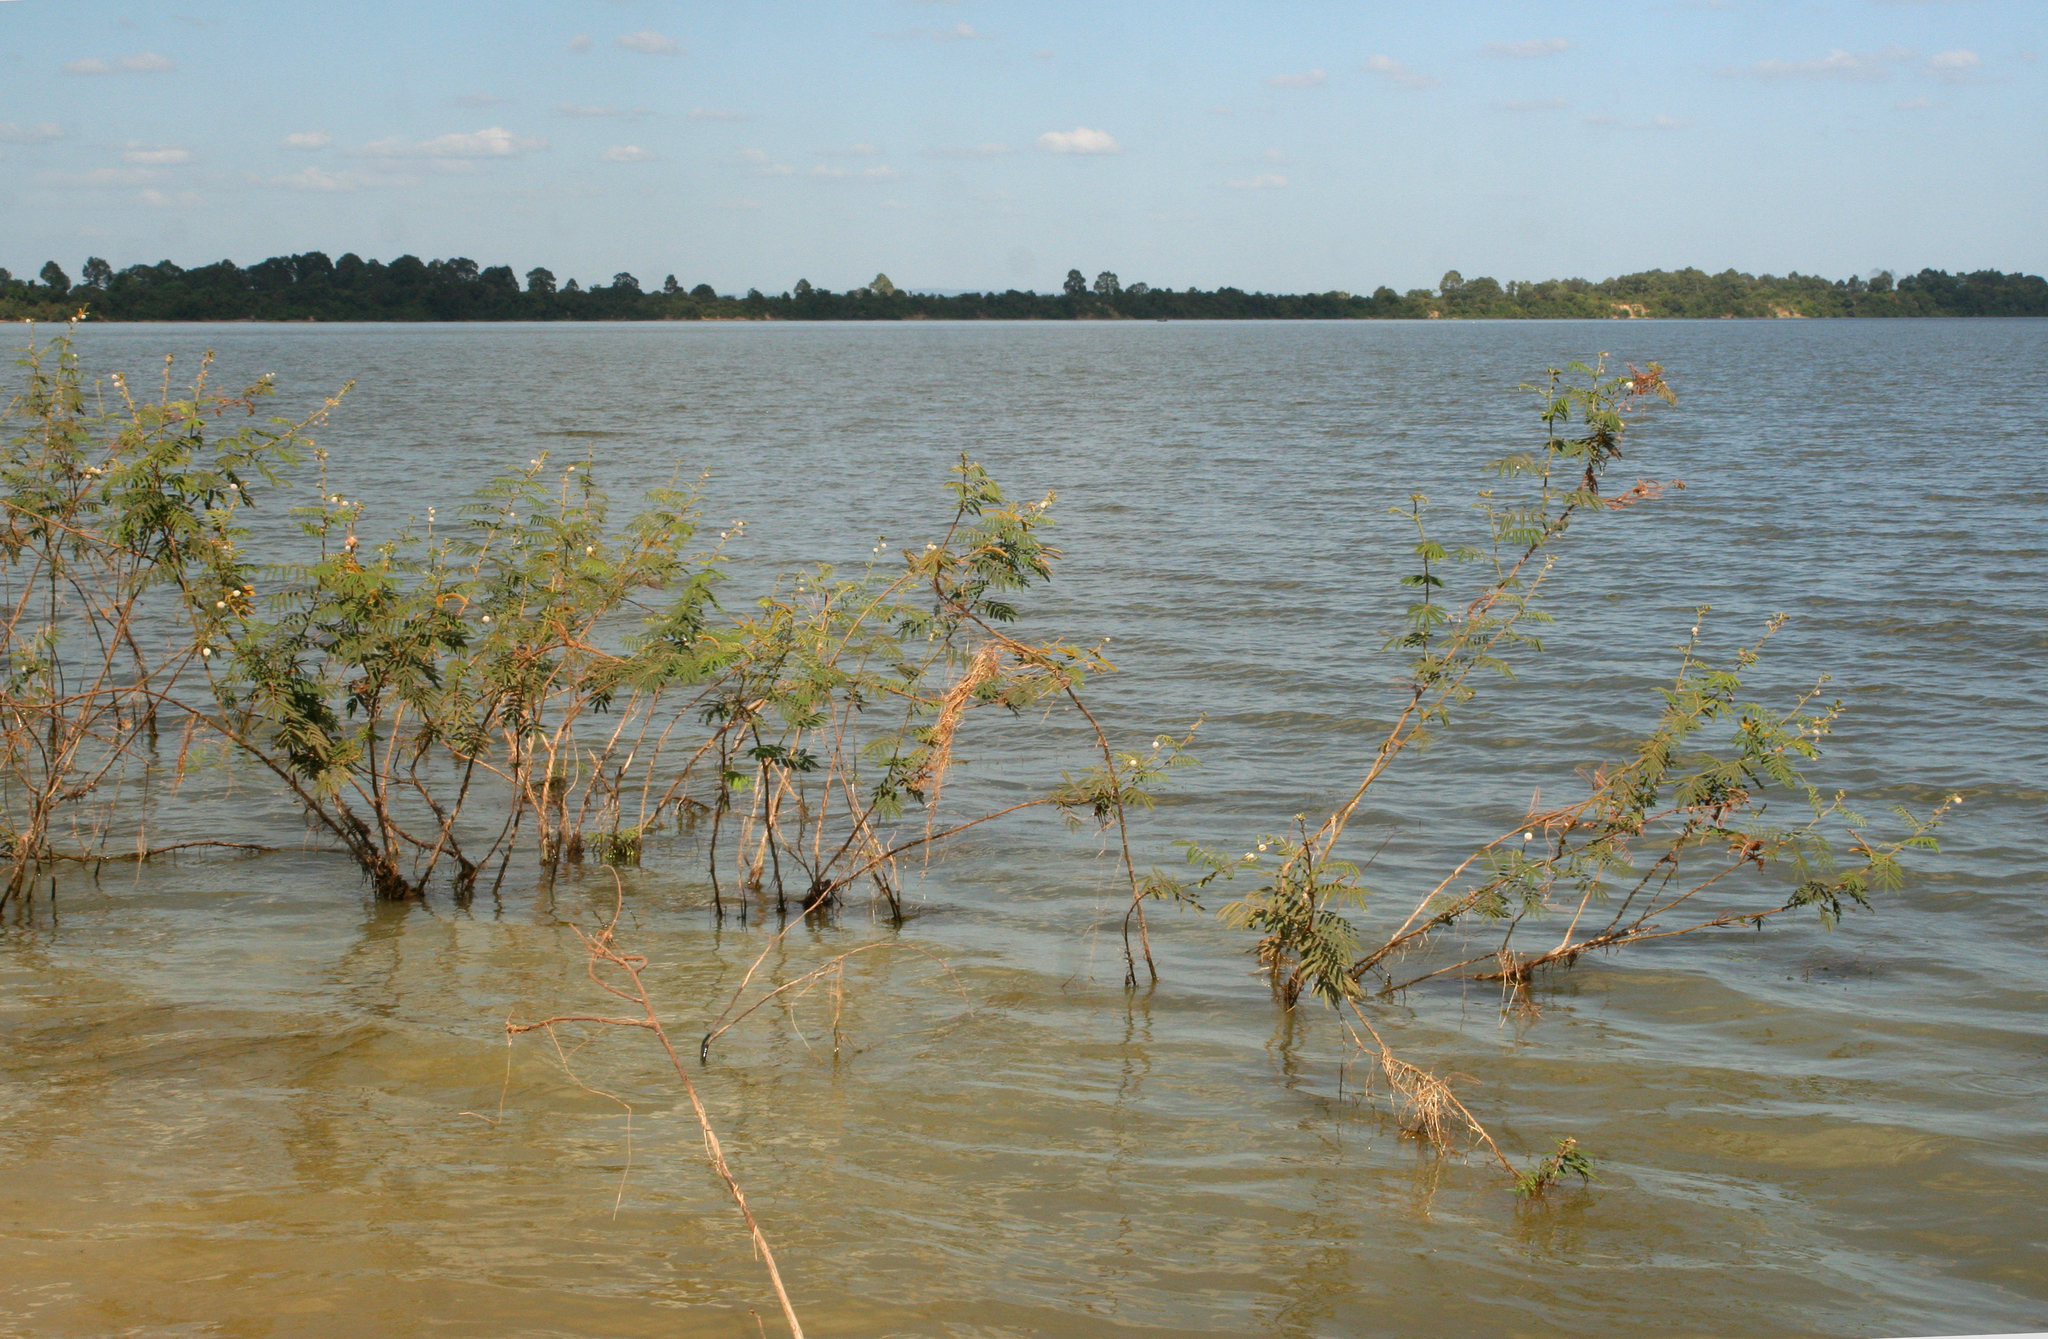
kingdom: Plantae
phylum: Tracheophyta
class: Magnoliopsida
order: Fabales
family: Fabaceae
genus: Mimosa
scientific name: Mimosa pigra
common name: Black mimosa
